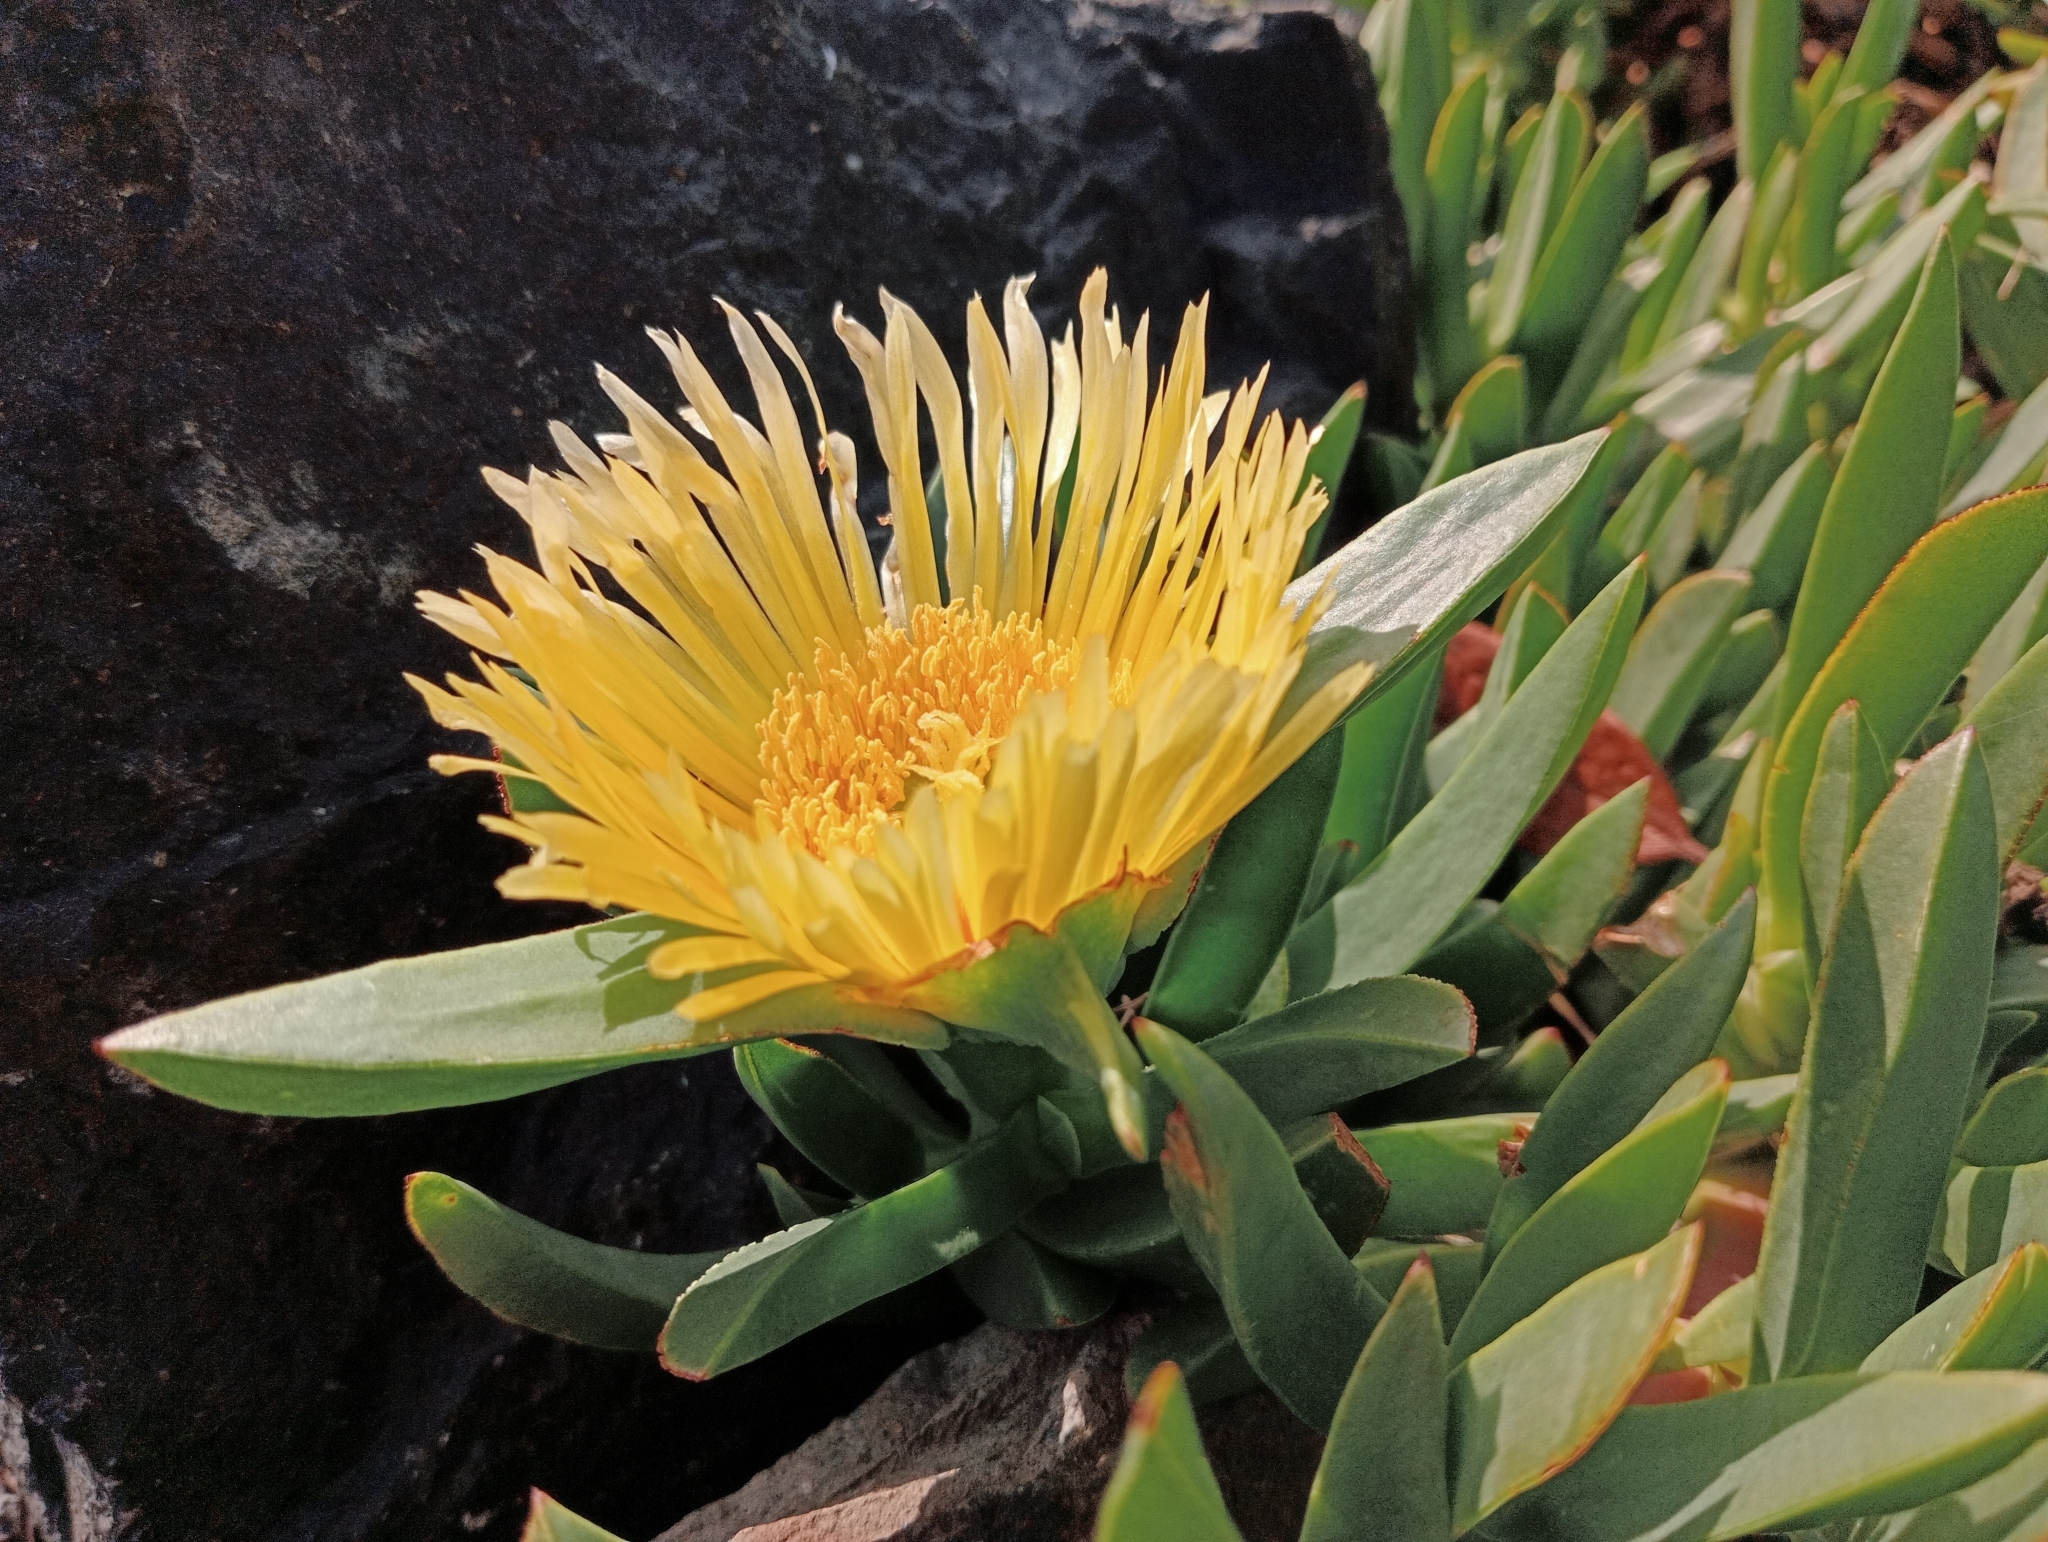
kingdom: Plantae
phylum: Tracheophyta
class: Magnoliopsida
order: Caryophyllales
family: Aizoaceae
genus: Carpobrotus
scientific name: Carpobrotus edulis
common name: Hottentot-fig
